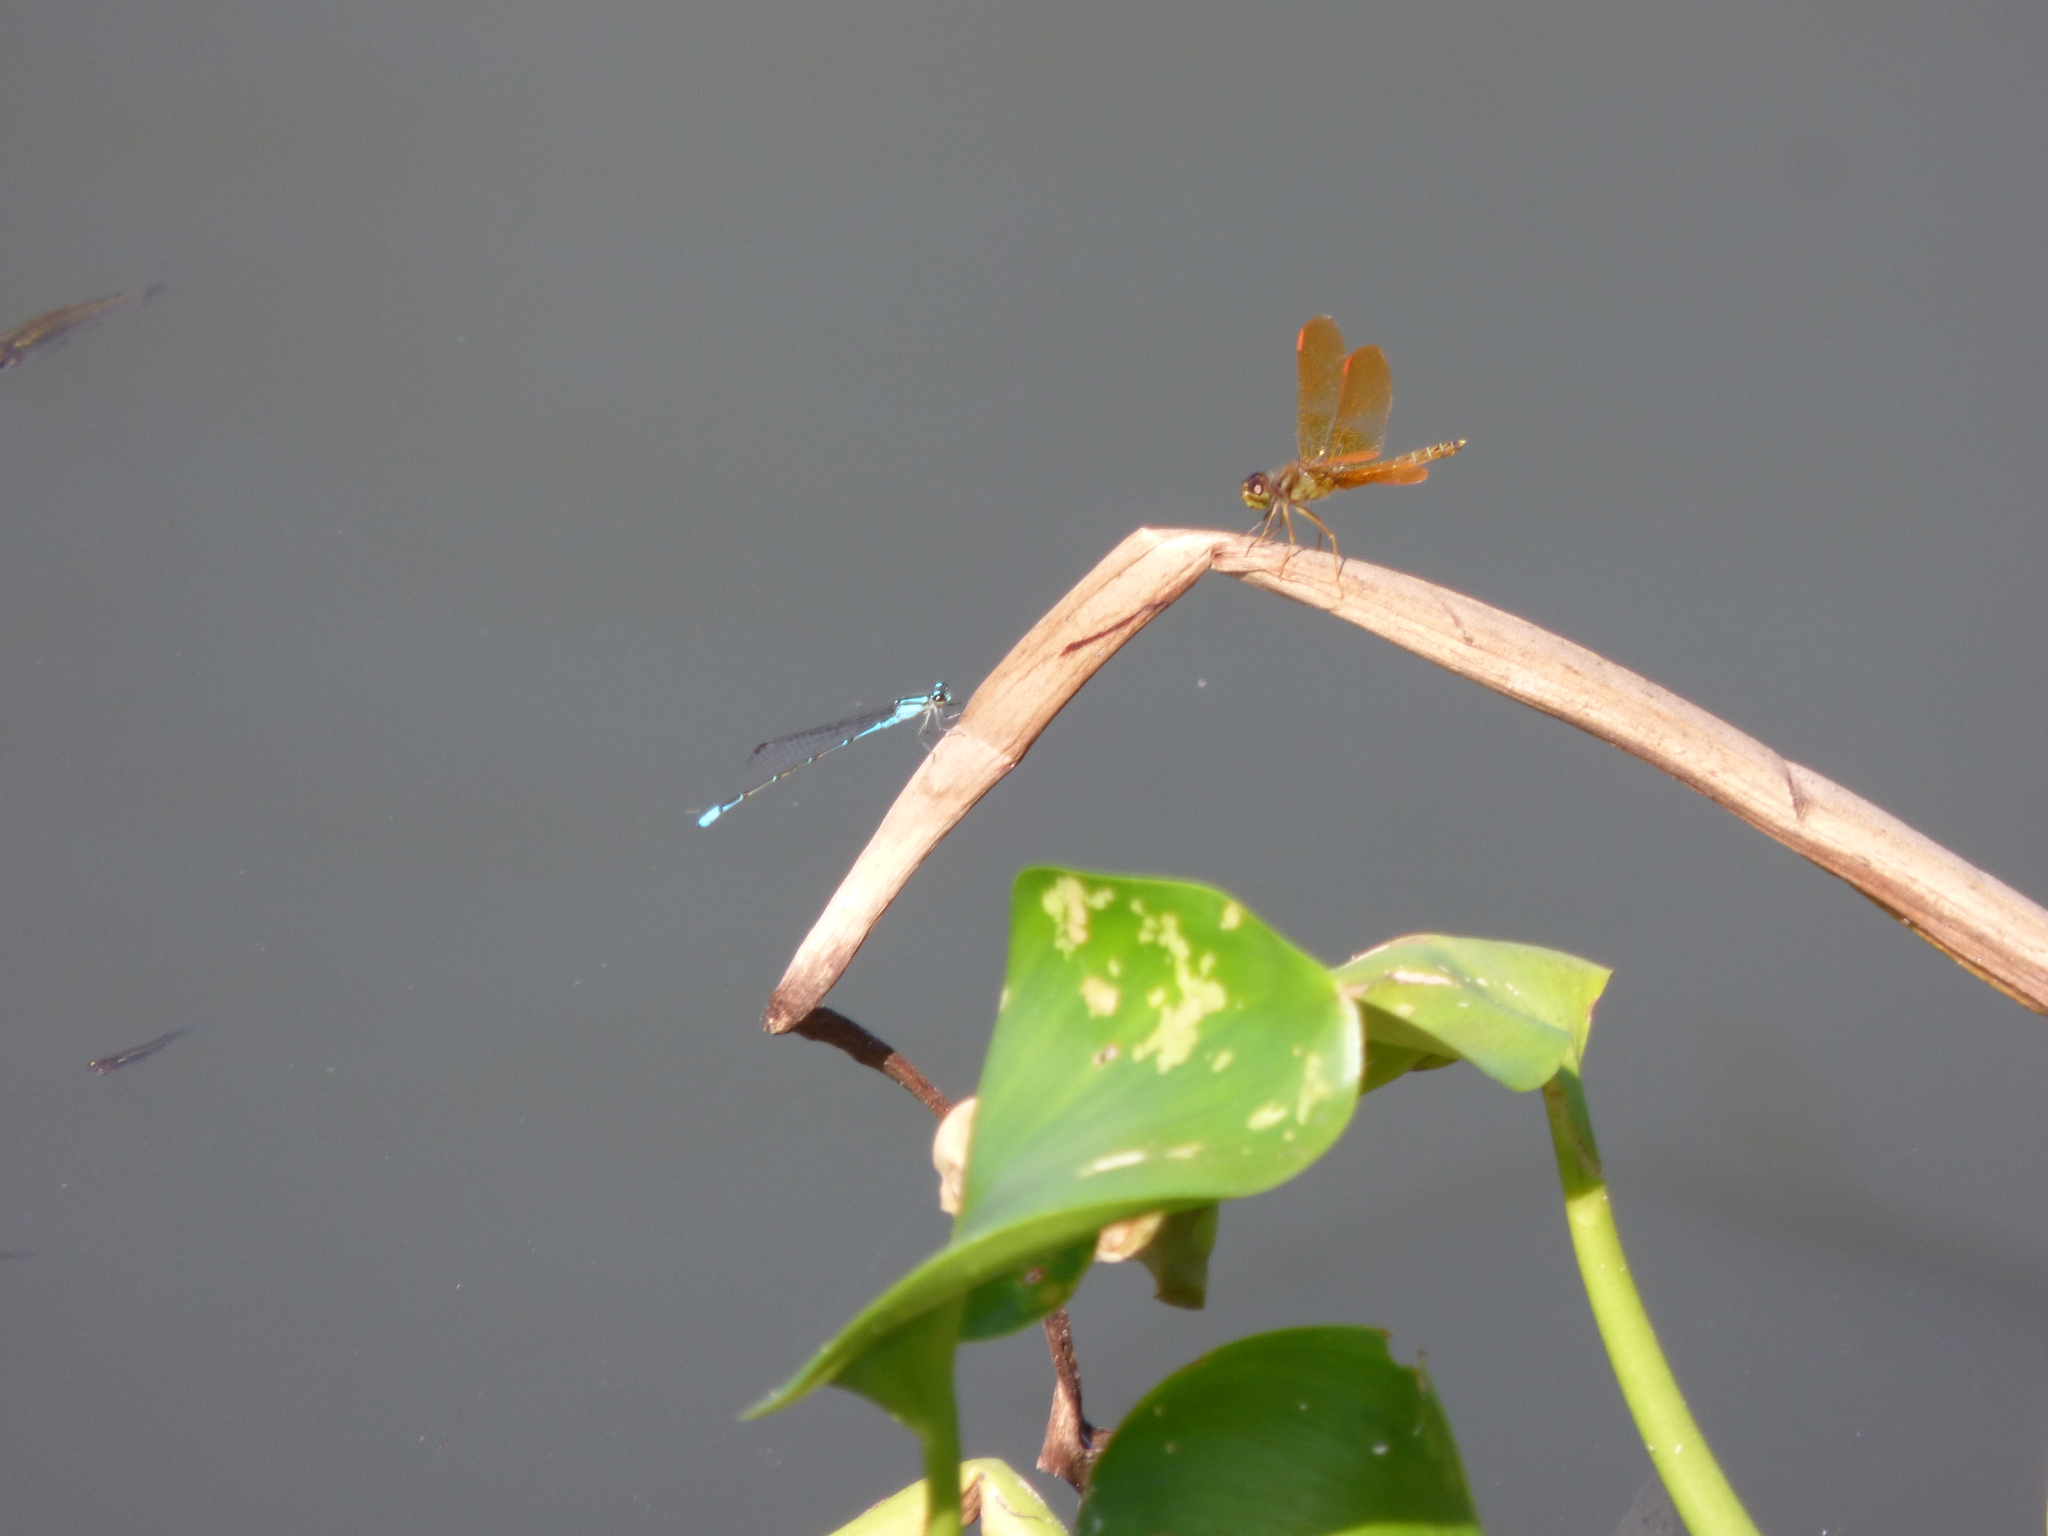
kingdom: Animalia
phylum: Arthropoda
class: Insecta
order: Odonata
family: Libellulidae
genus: Perithemis
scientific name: Perithemis tenera
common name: Eastern amberwing
